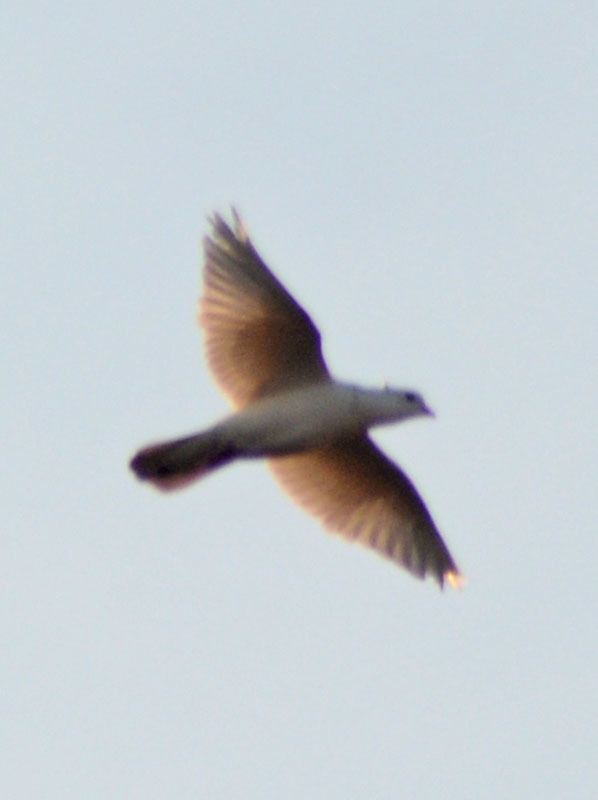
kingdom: Animalia
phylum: Chordata
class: Aves
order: Columbiformes
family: Columbidae
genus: Streptopelia
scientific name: Streptopelia decaocto
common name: Eurasian collared dove
